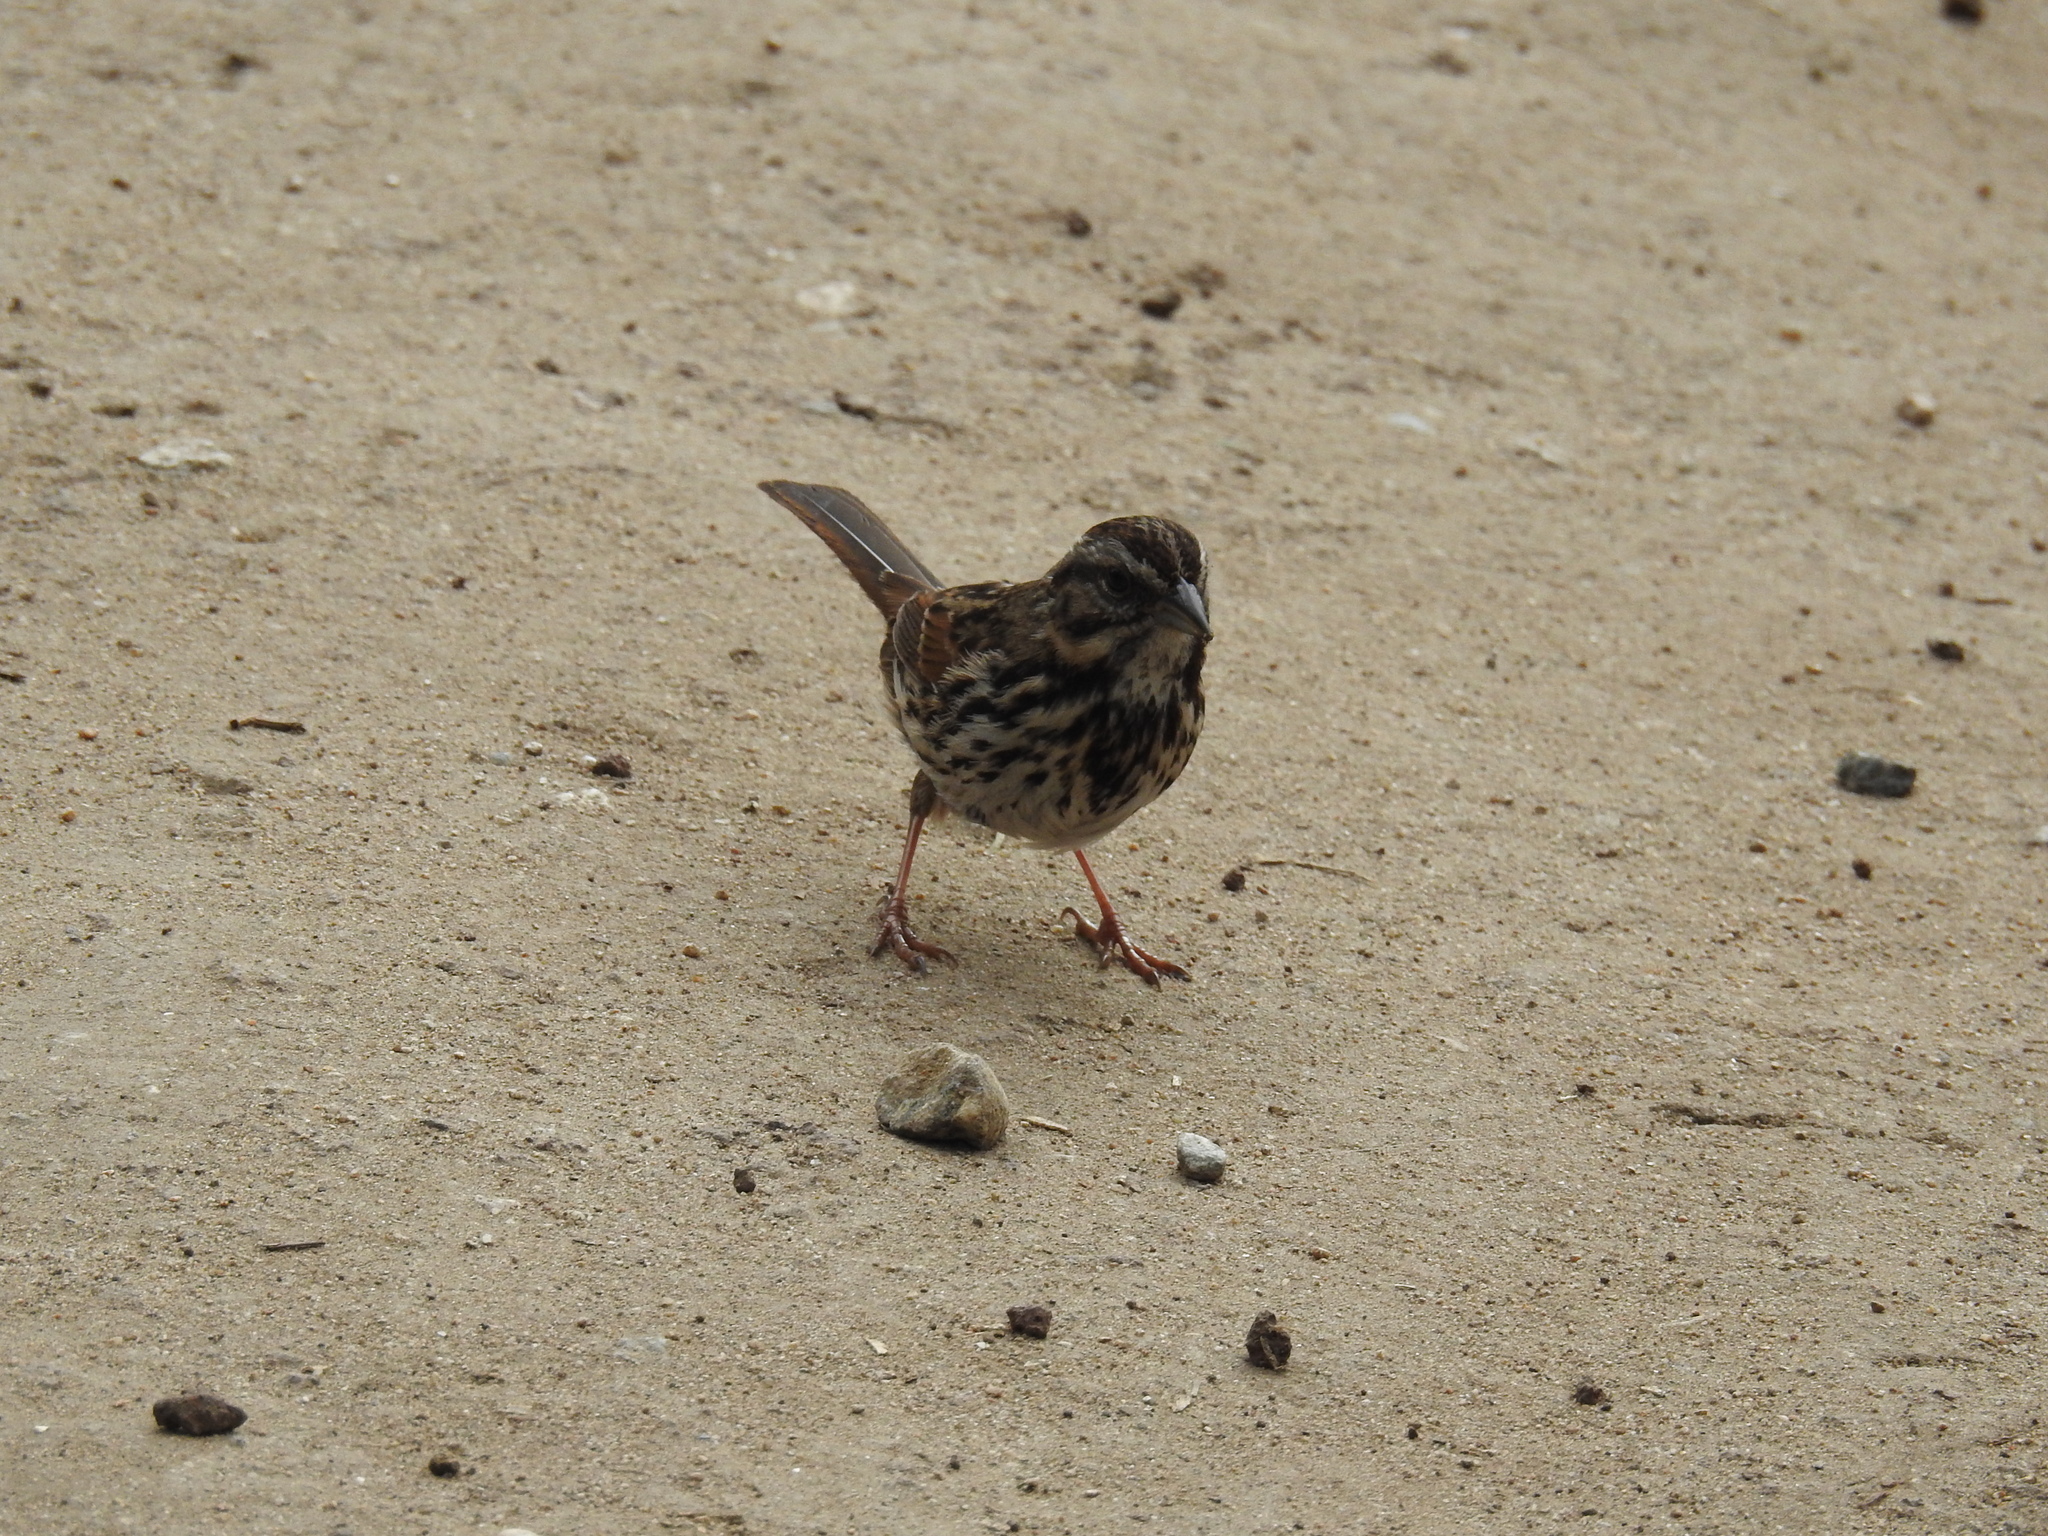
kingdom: Animalia
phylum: Chordata
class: Aves
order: Passeriformes
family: Passerellidae
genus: Melospiza
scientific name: Melospiza melodia
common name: Song sparrow
